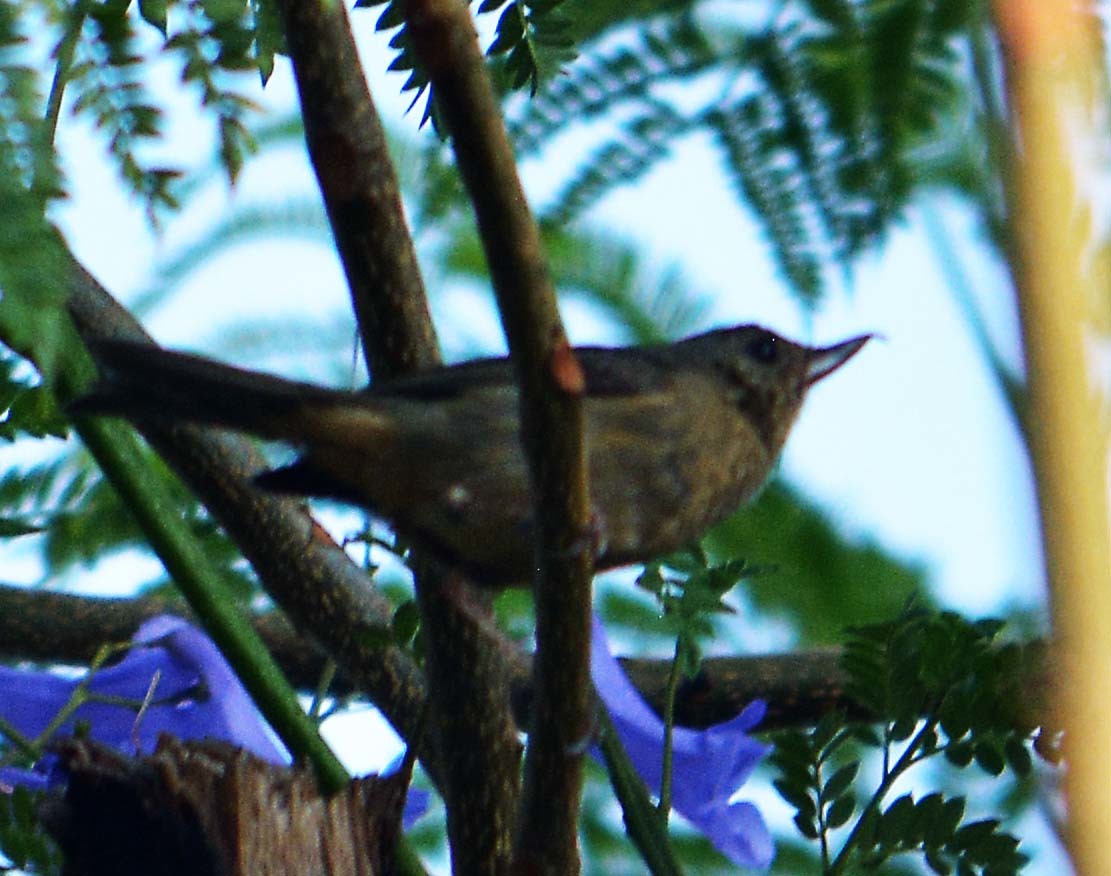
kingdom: Animalia
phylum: Chordata
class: Aves
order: Passeriformes
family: Thraupidae
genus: Diglossa
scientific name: Diglossa baritula
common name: Cinnamon-bellied flowerpiercer
